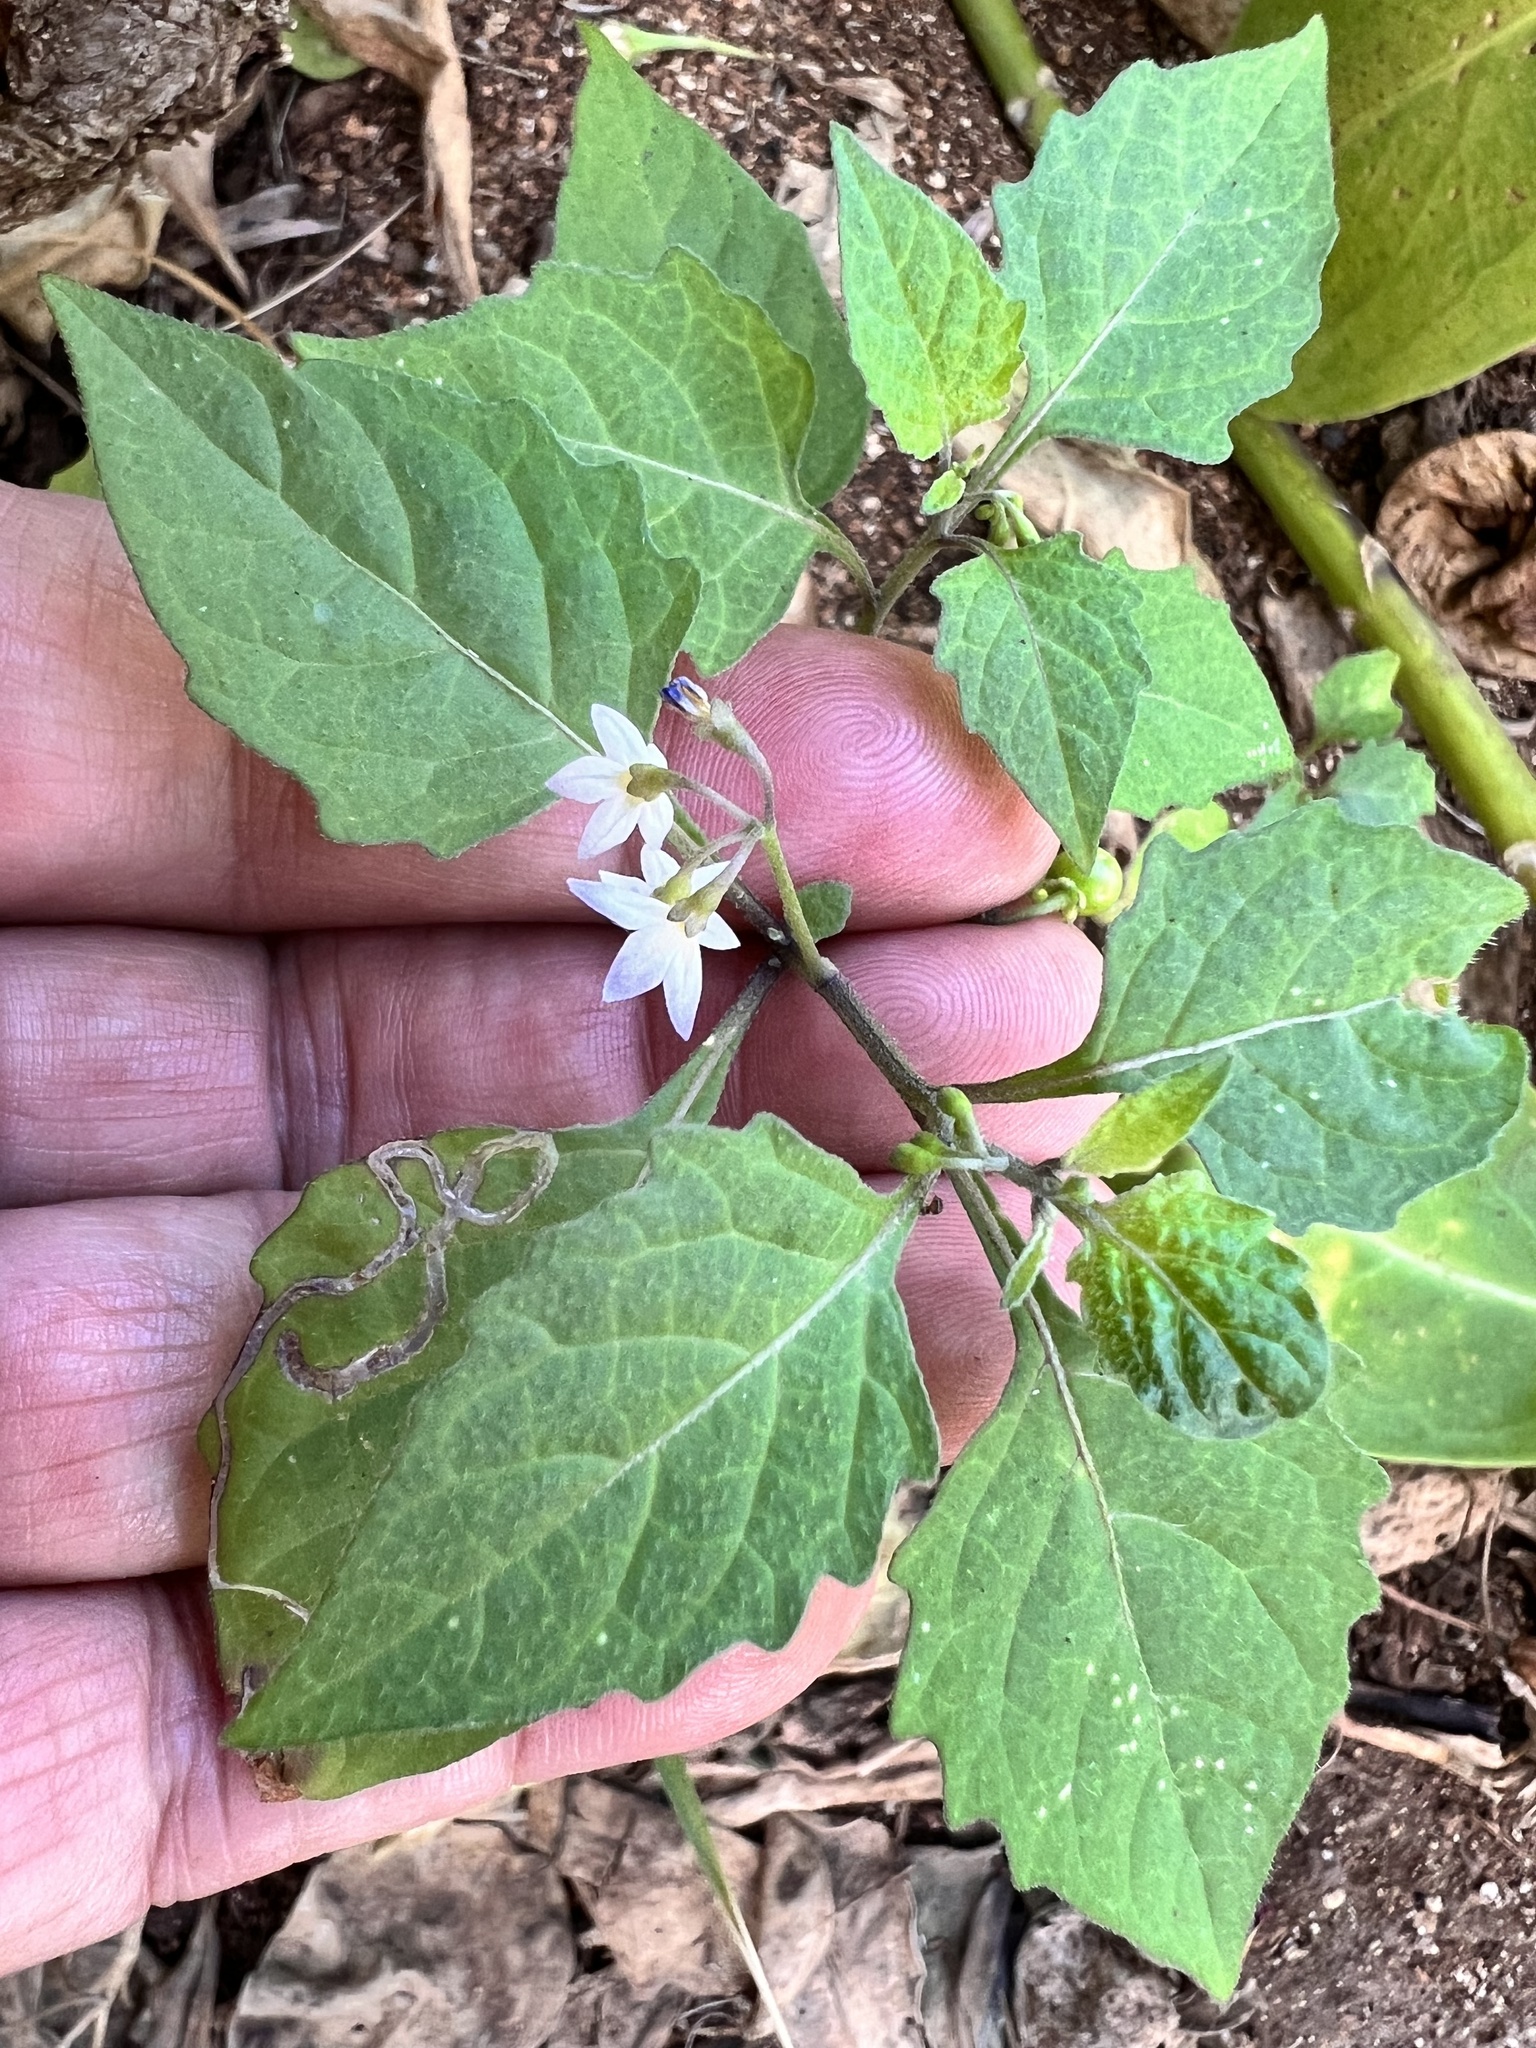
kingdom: Plantae
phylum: Tracheophyta
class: Magnoliopsida
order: Solanales
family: Solanaceae
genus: Solanum
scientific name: Solanum americanum
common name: American black nightshade
